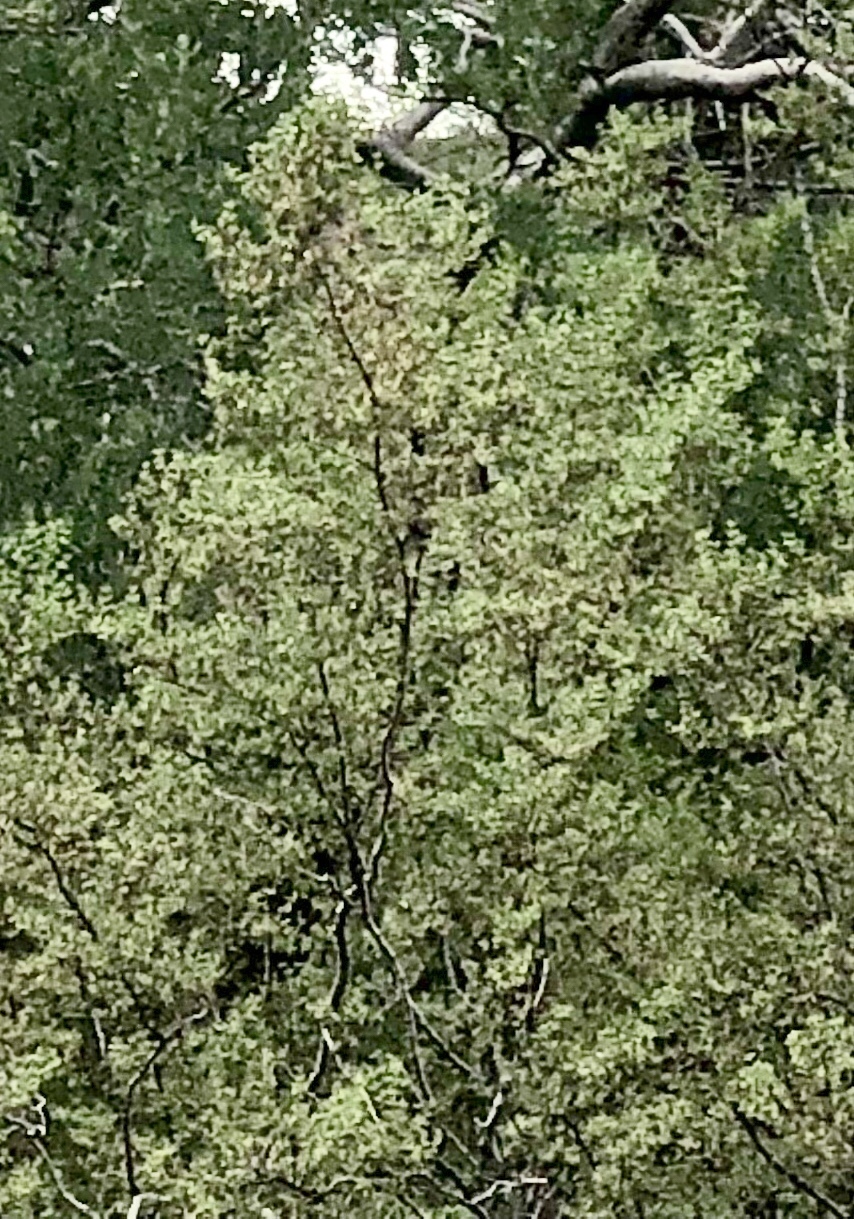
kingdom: Plantae
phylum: Tracheophyta
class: Magnoliopsida
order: Zygophyllales
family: Zygophyllaceae
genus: Larrea
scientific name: Larrea tridentata
